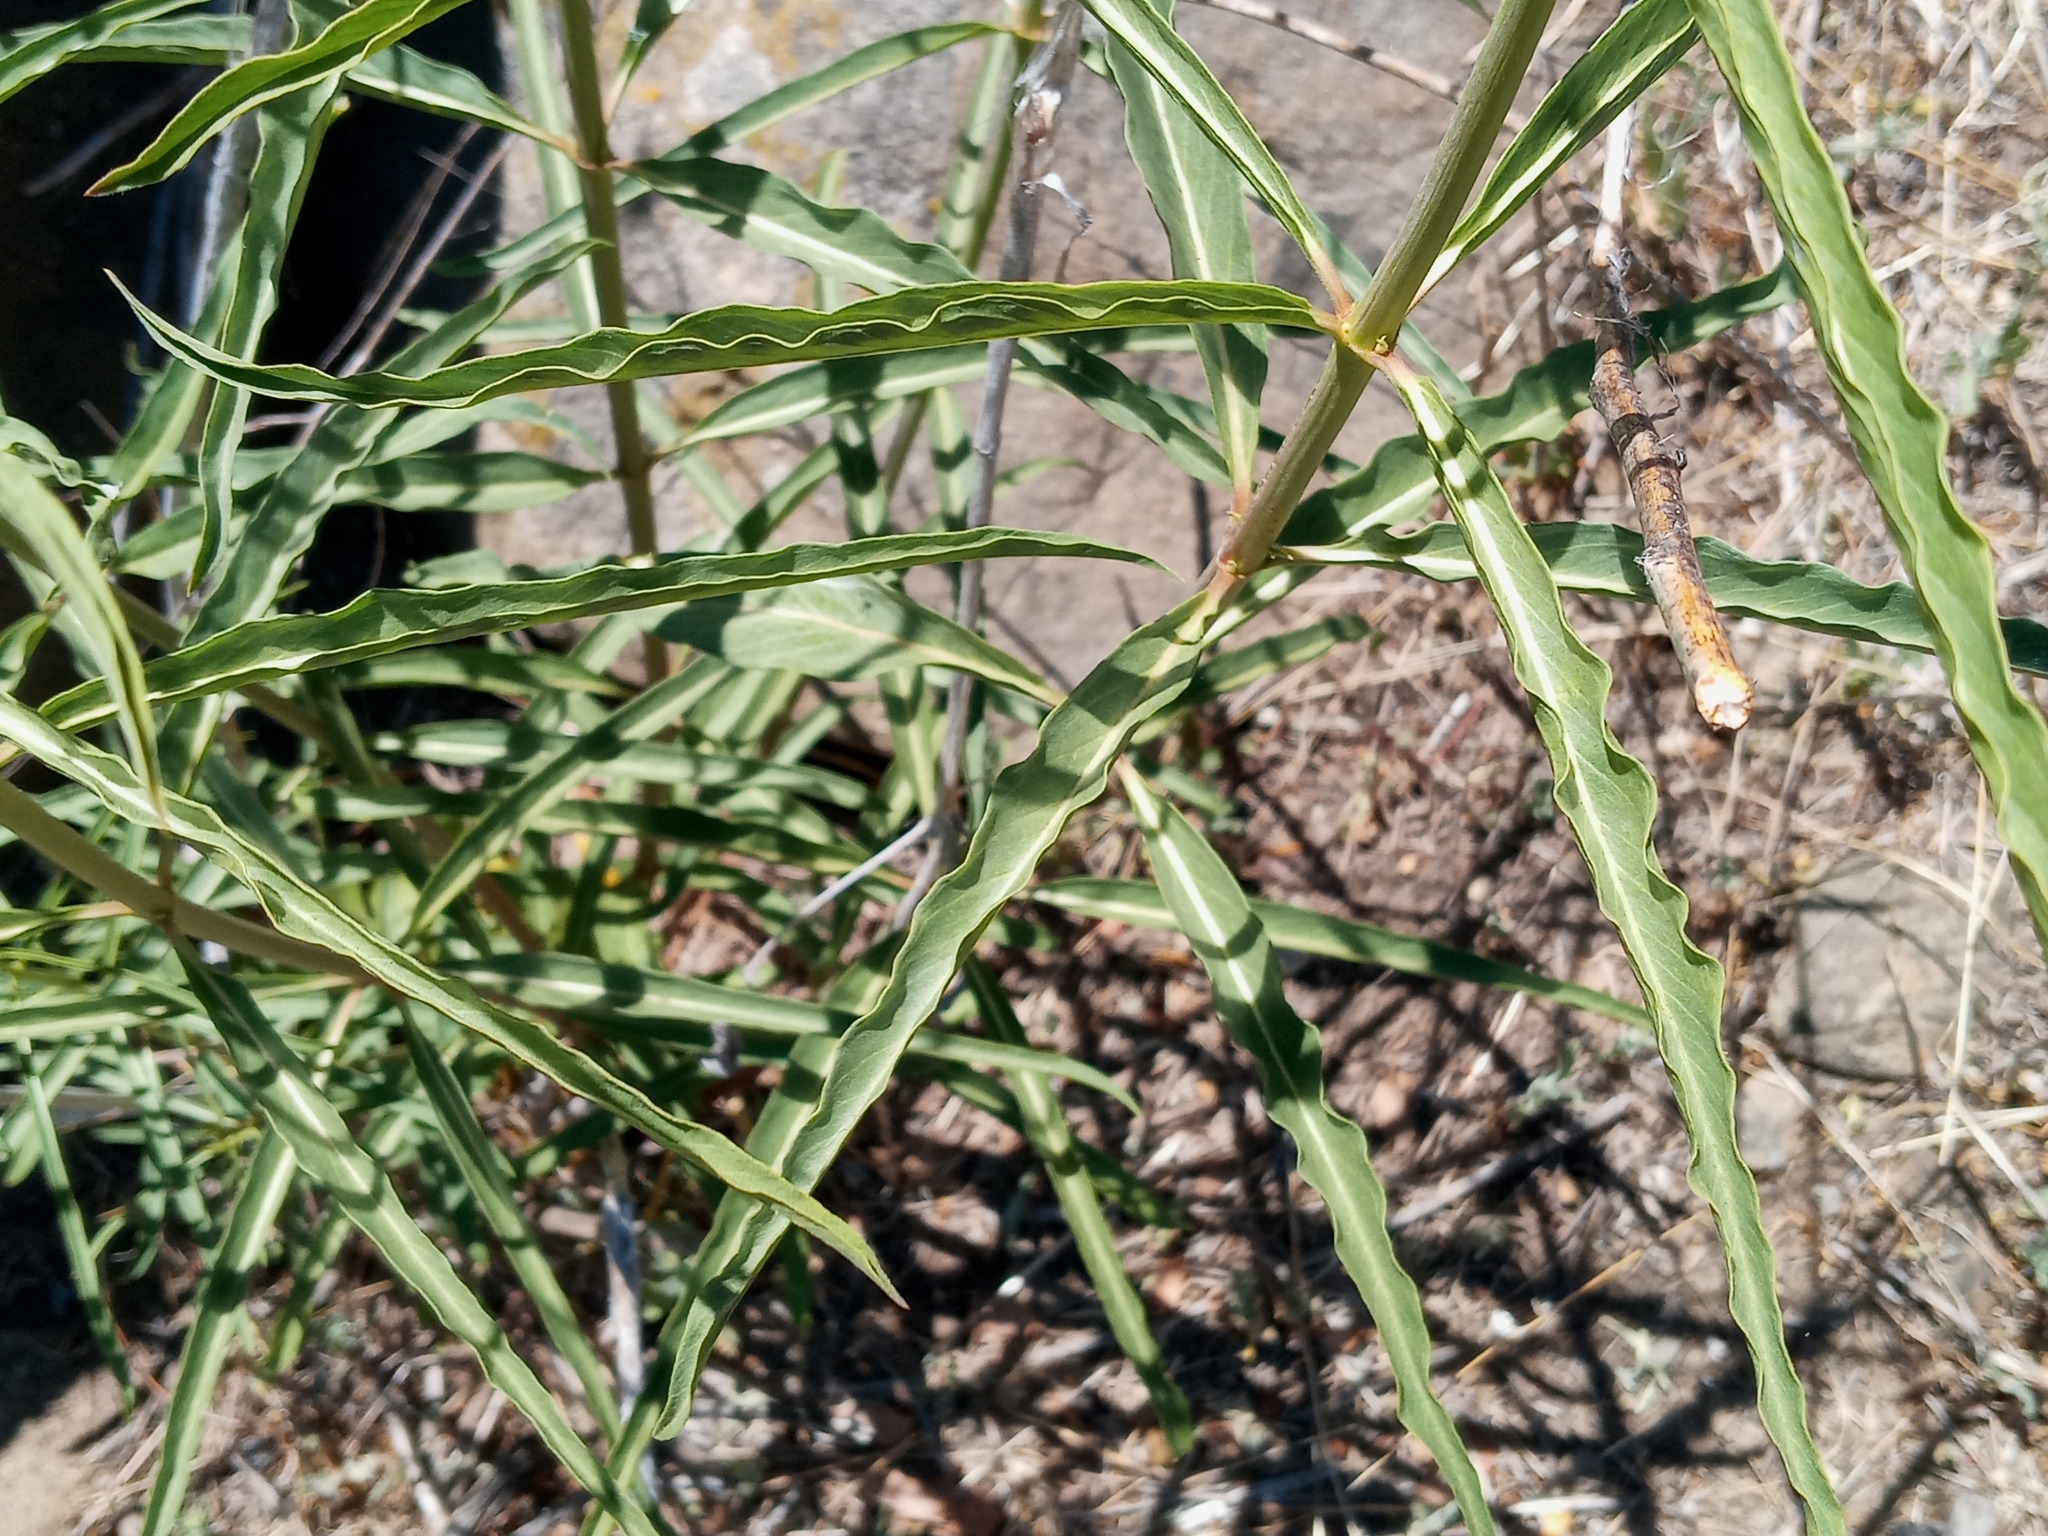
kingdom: Plantae
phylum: Tracheophyta
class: Magnoliopsida
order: Gentianales
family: Apocynaceae
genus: Asclepias
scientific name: Asclepias fascicularis
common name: Mexican milkweed
